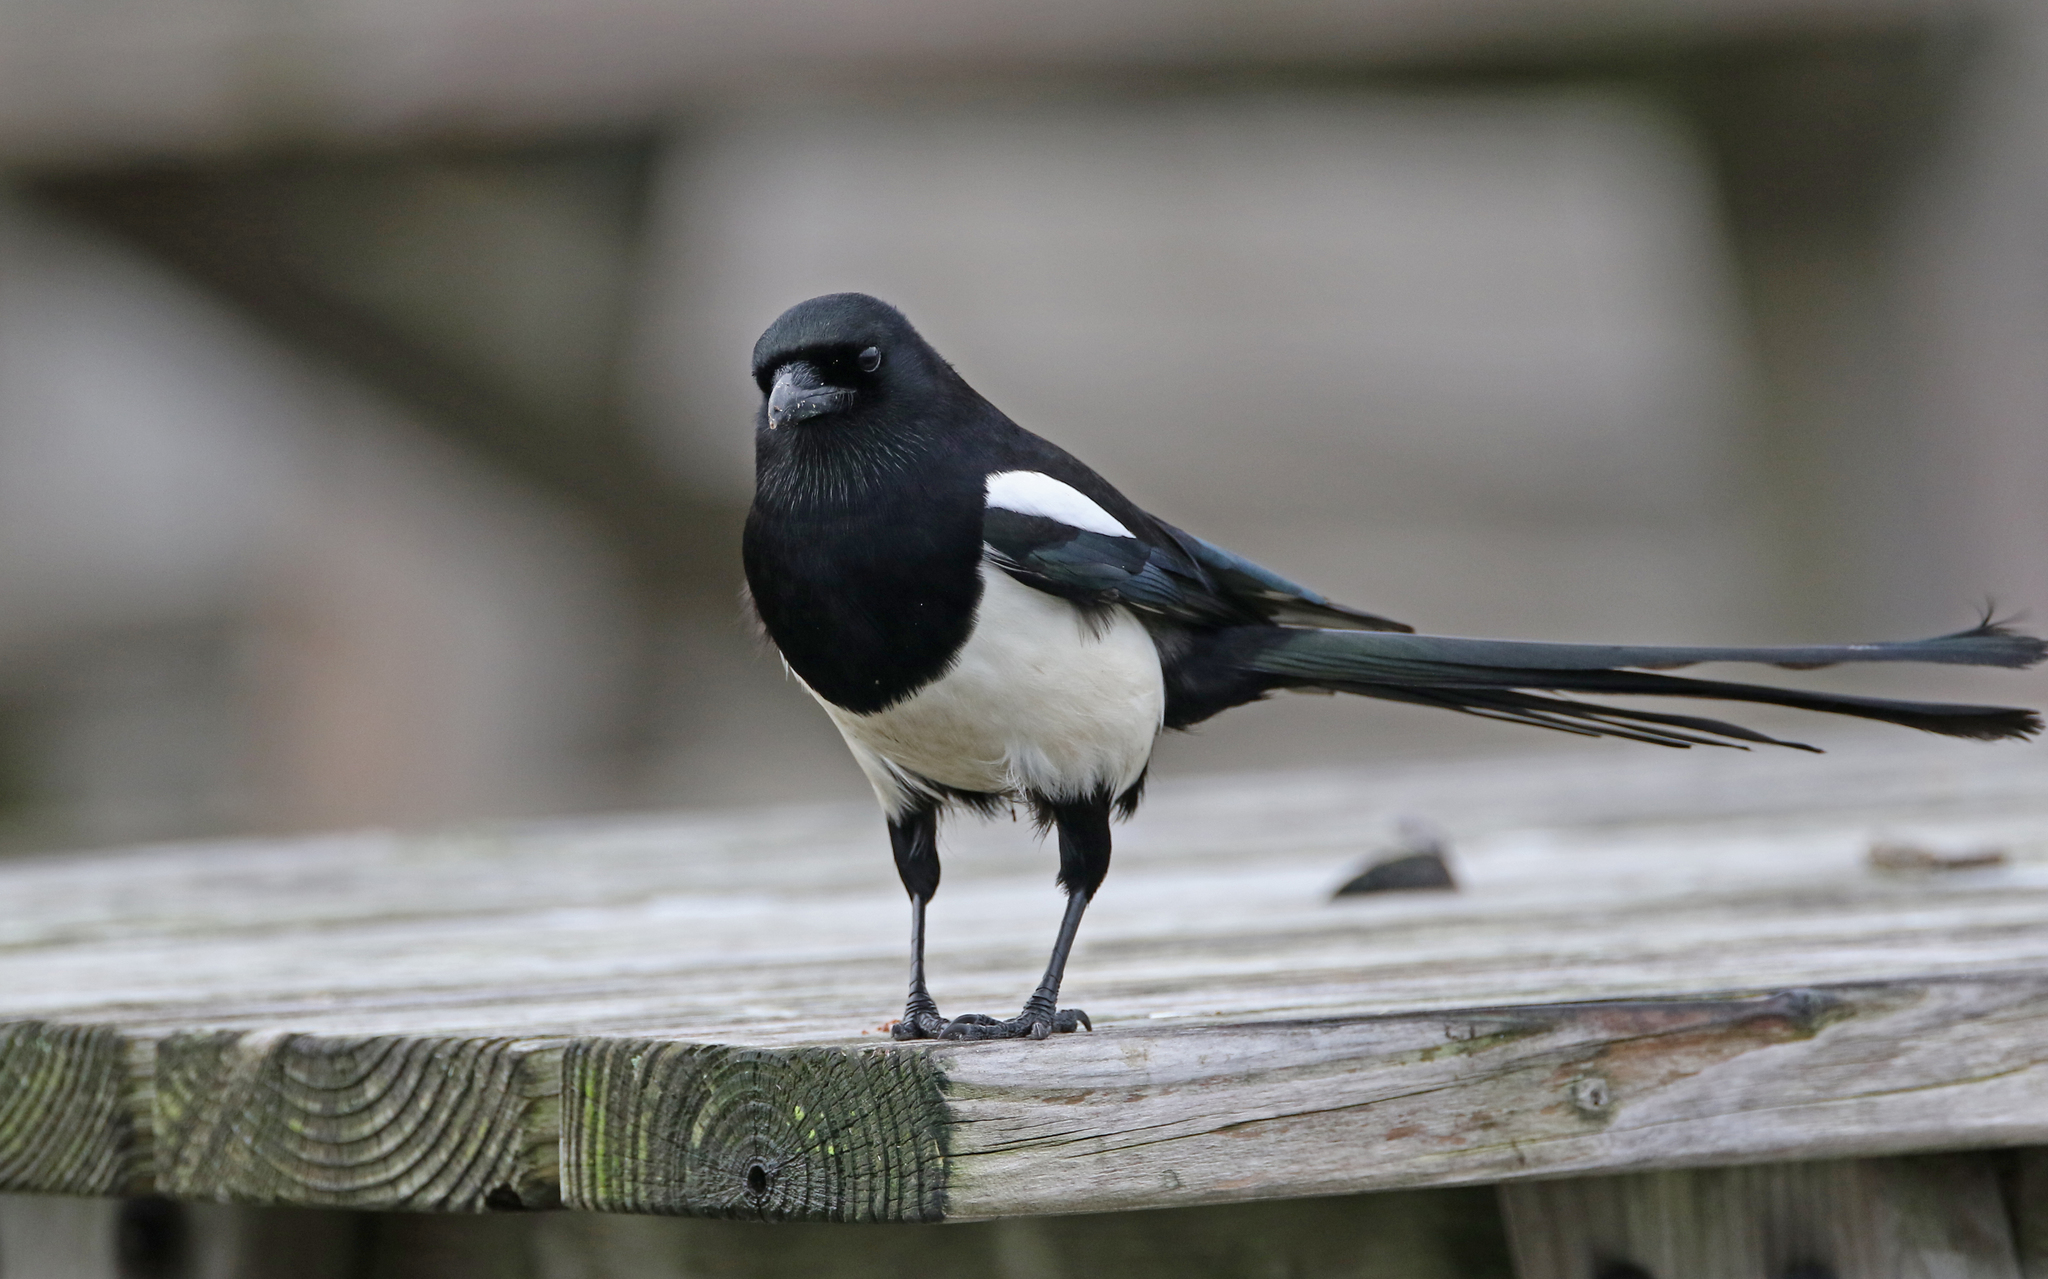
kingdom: Animalia
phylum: Chordata
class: Aves
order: Passeriformes
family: Corvidae
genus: Pica
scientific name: Pica pica
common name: Eurasian magpie
